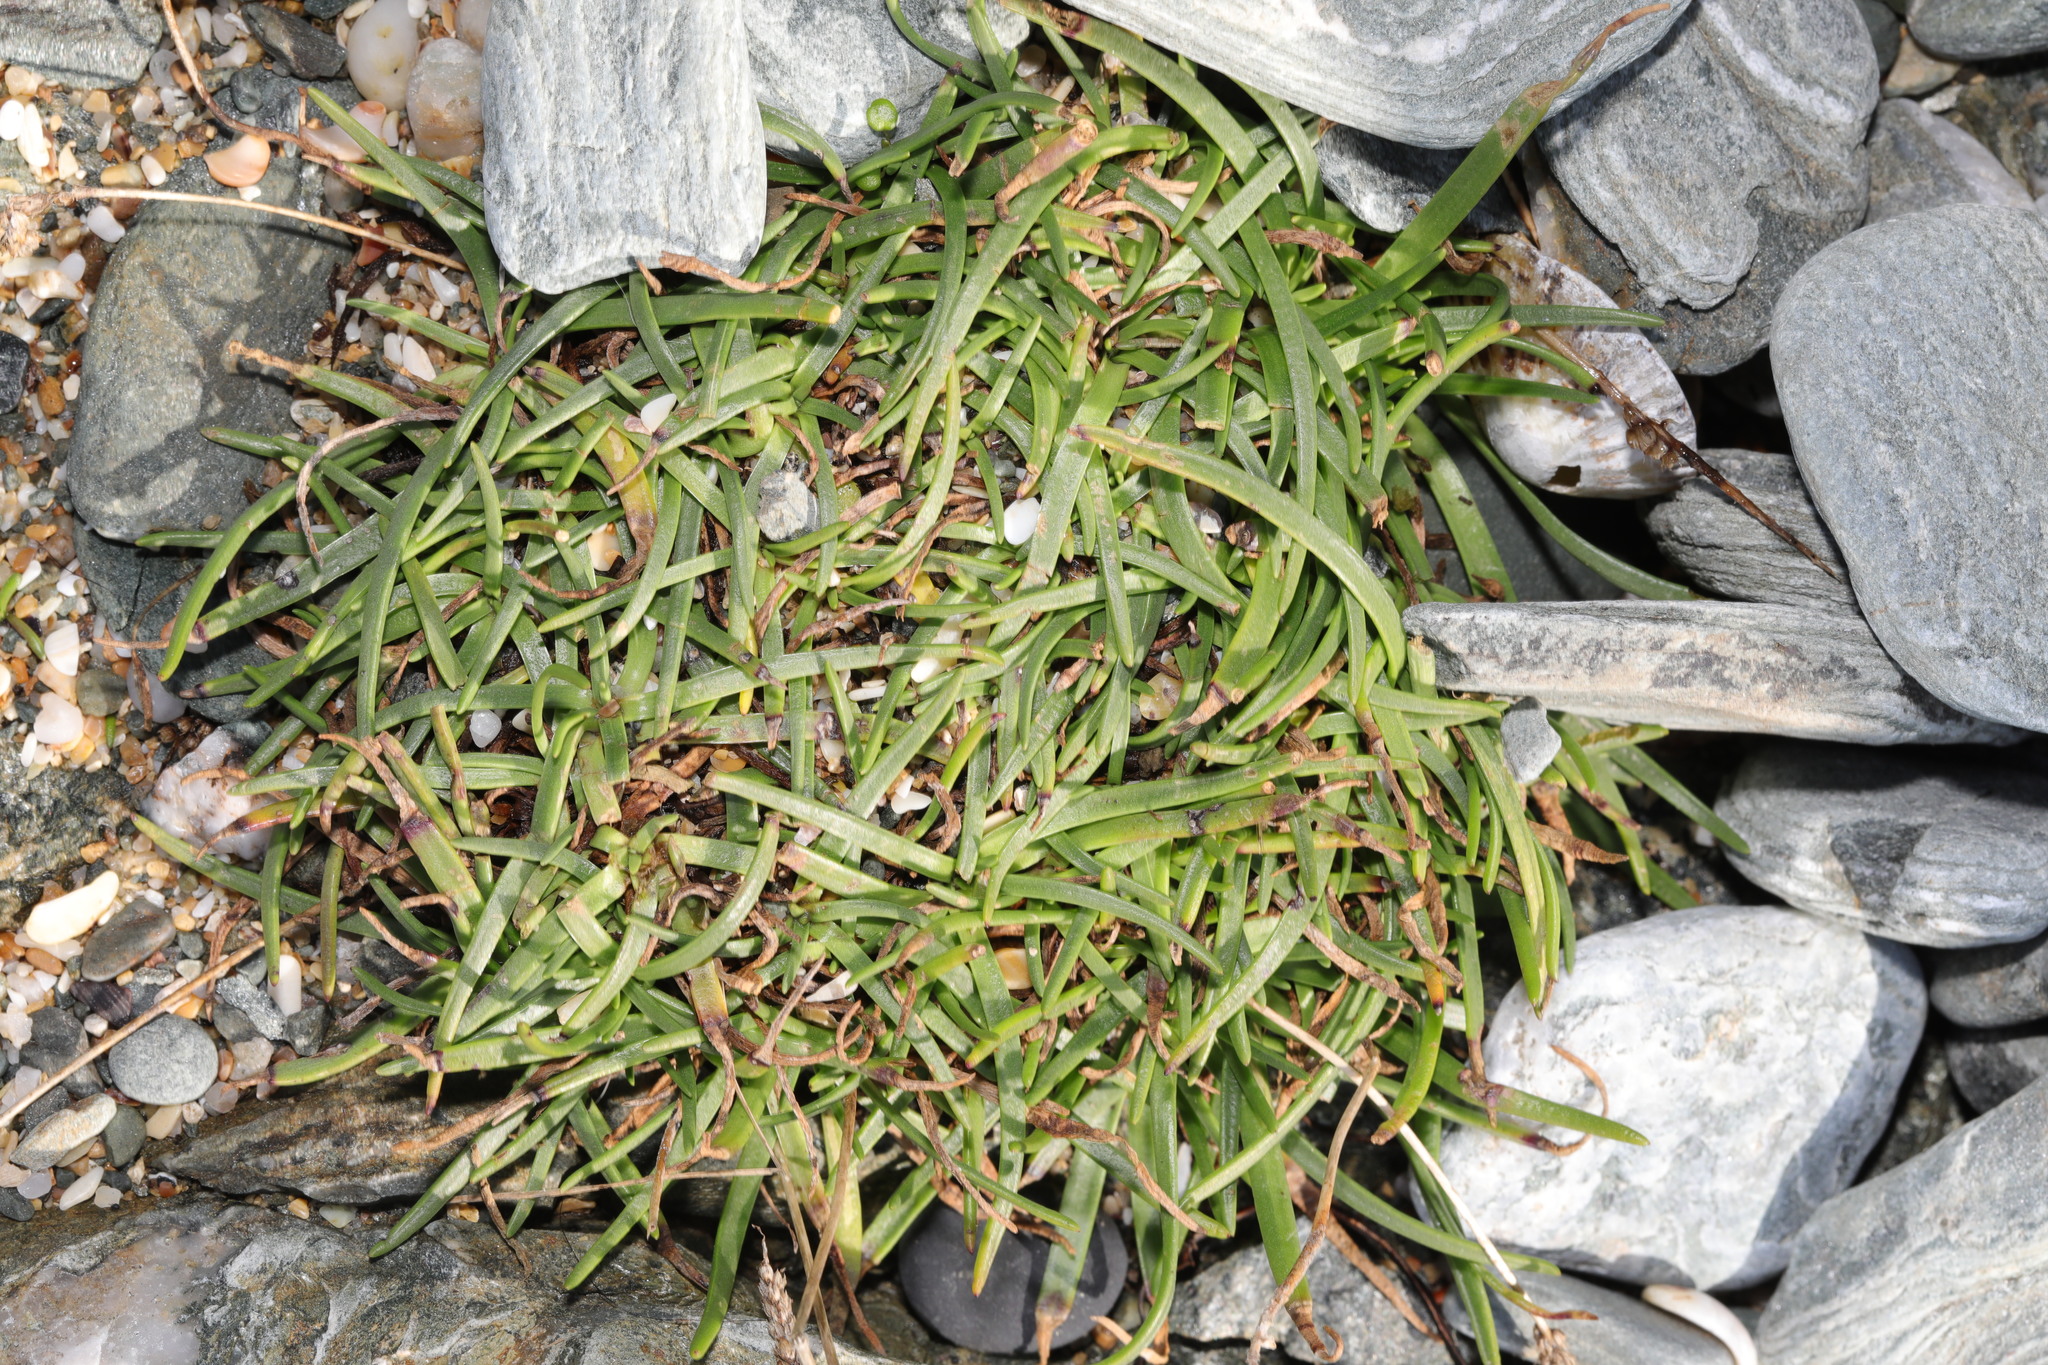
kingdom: Plantae
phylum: Tracheophyta
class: Magnoliopsida
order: Lamiales
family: Plantaginaceae
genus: Plantago
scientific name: Plantago maritima
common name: Sea plantain
